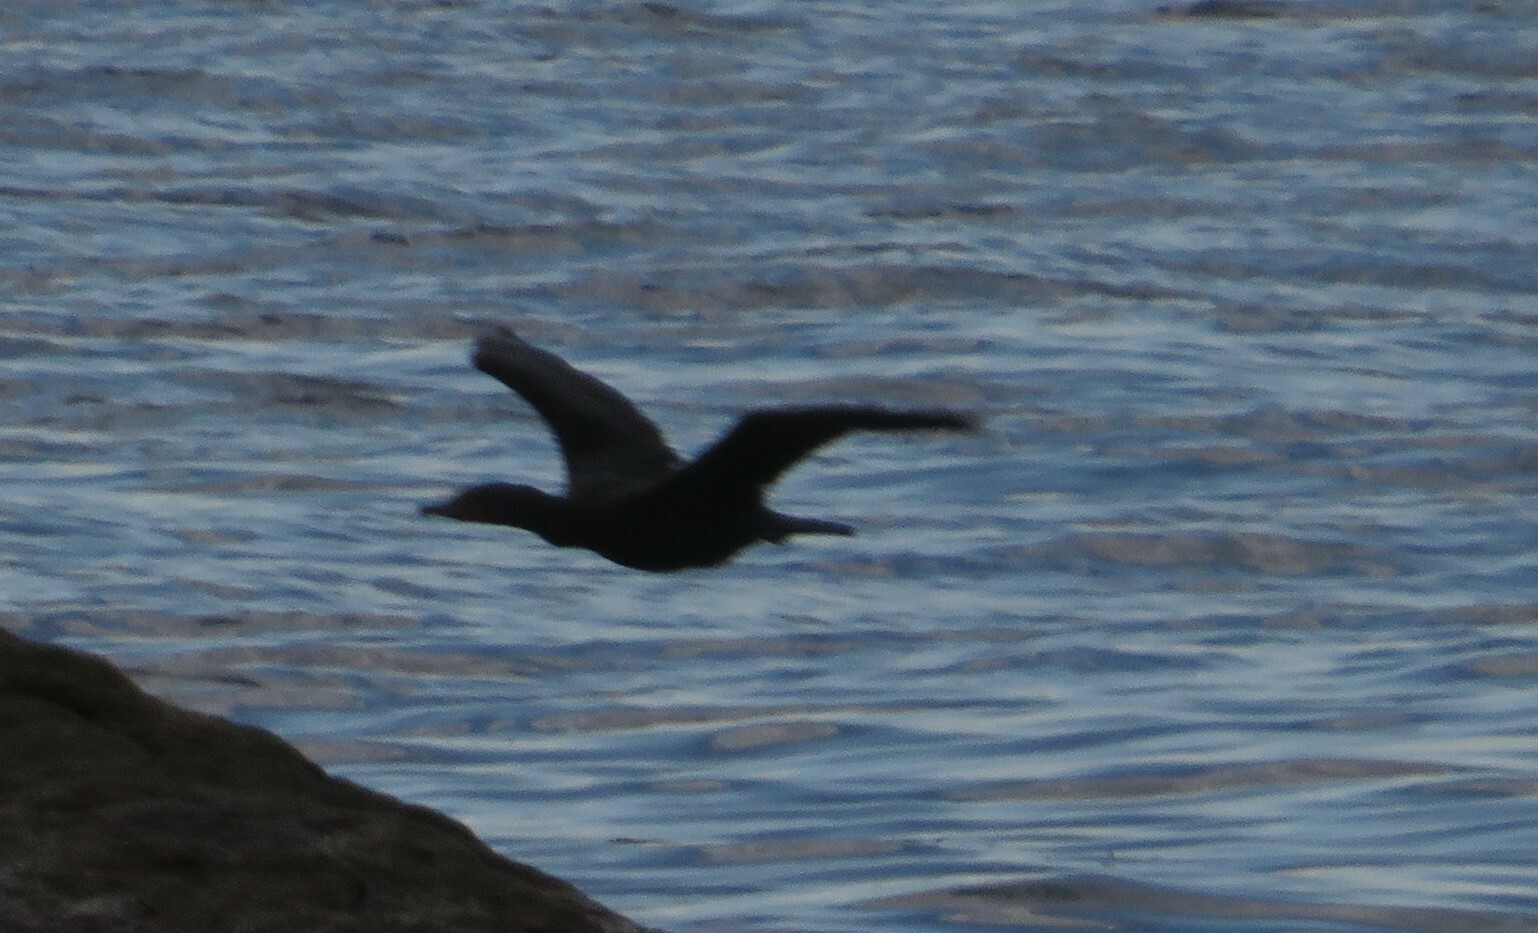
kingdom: Animalia
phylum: Chordata
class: Aves
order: Suliformes
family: Phalacrocoracidae
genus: Phalacrocorax
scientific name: Phalacrocorax auritus
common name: Double-crested cormorant
